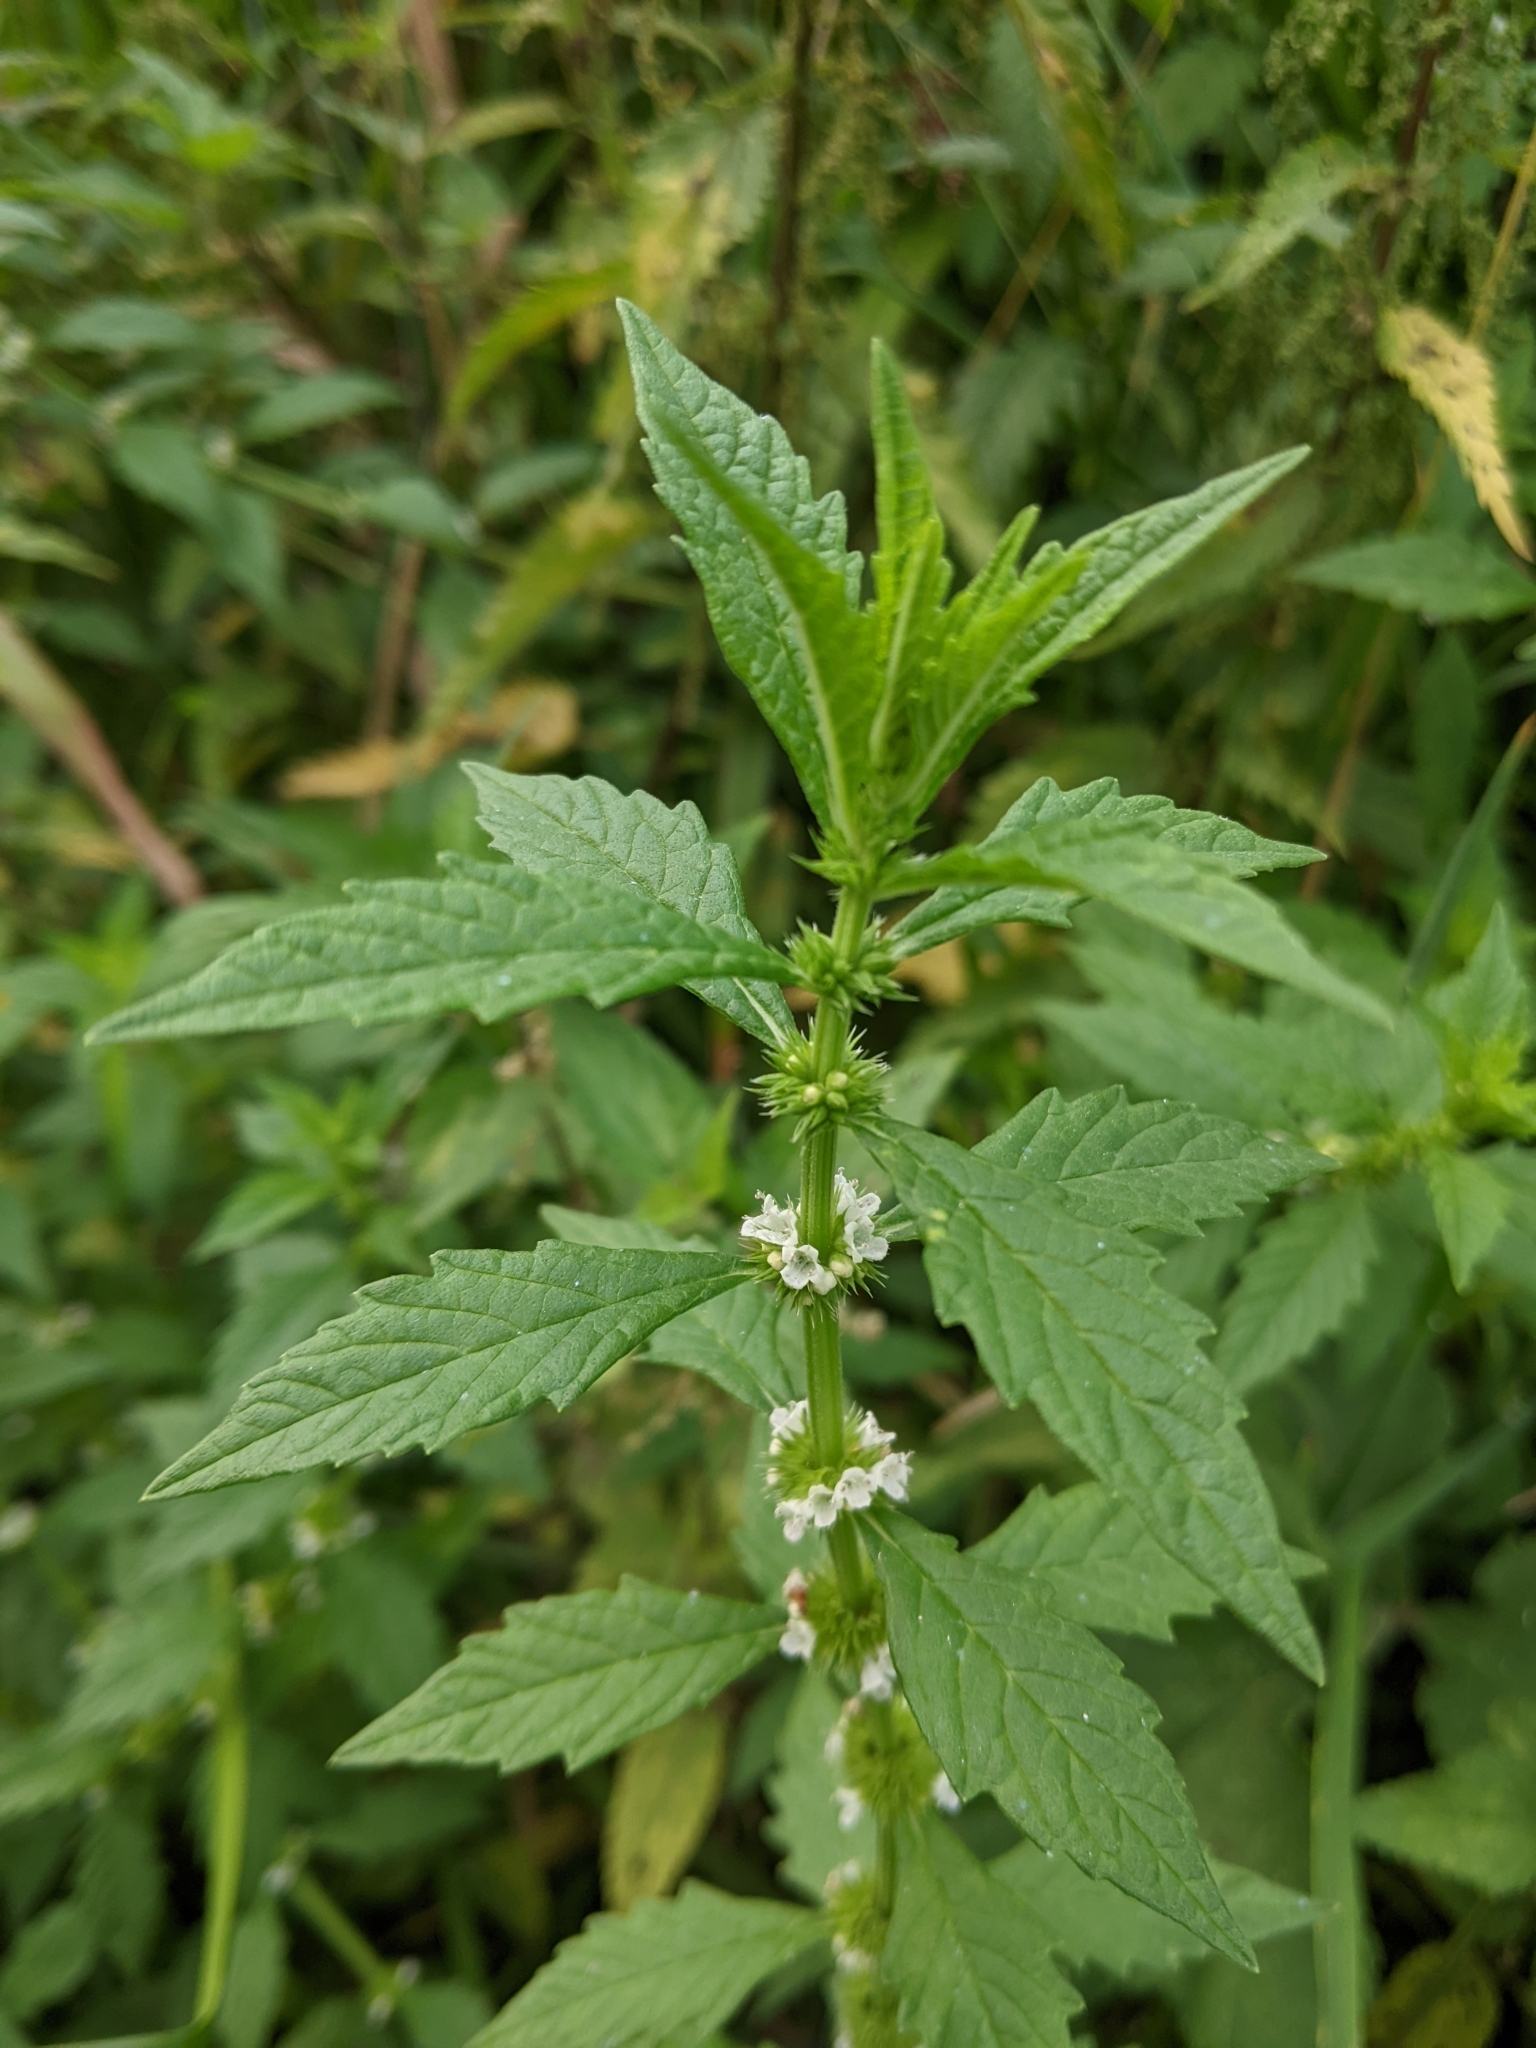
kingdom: Plantae
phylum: Tracheophyta
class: Magnoliopsida
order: Lamiales
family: Lamiaceae
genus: Lycopus
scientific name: Lycopus europaeus
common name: European bugleweed
